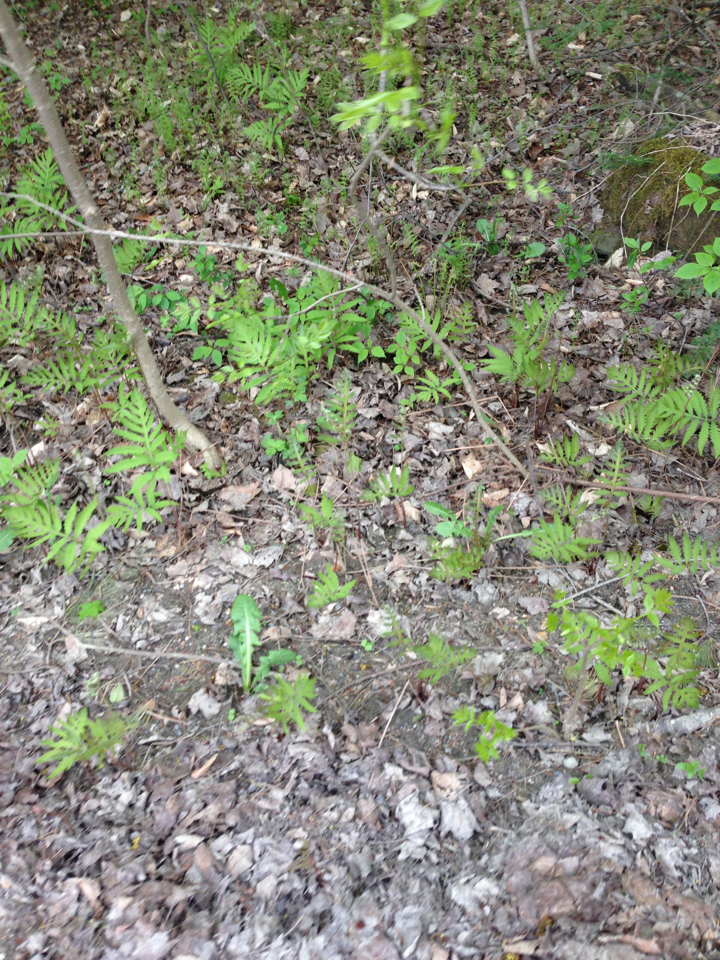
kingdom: Plantae
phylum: Tracheophyta
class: Polypodiopsida
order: Polypodiales
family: Onocleaceae
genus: Onoclea
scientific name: Onoclea sensibilis
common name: Sensitive fern
